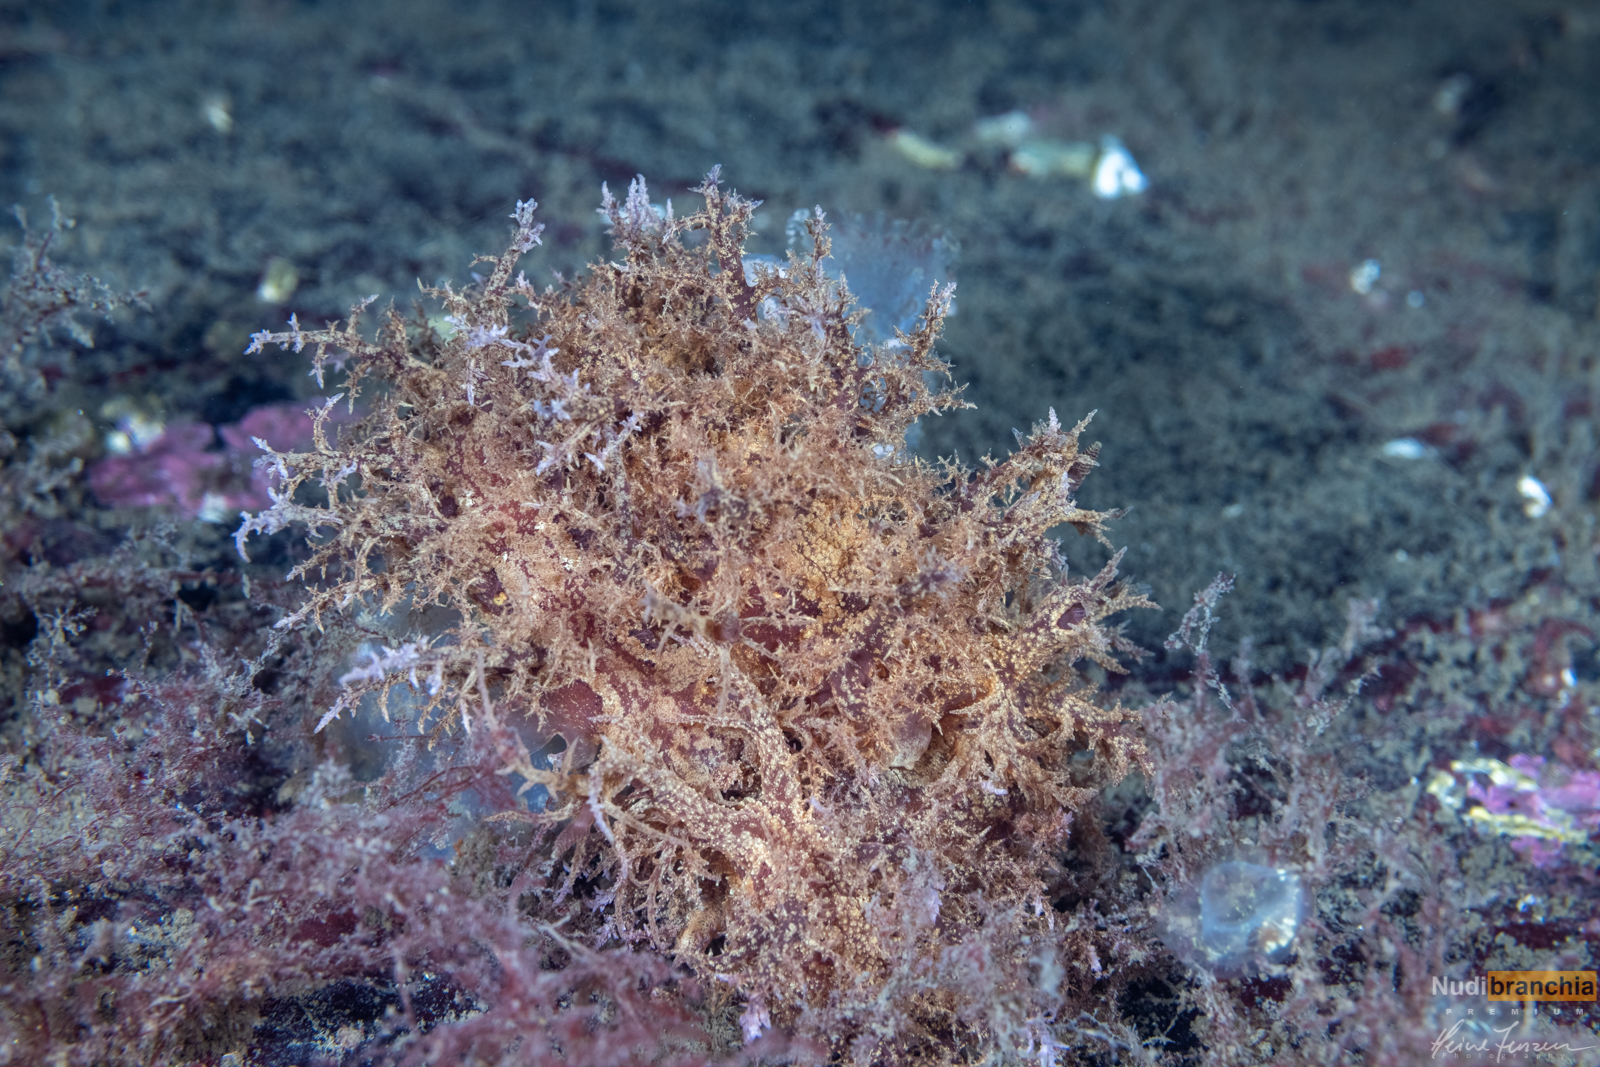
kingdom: Animalia
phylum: Mollusca
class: Gastropoda
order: Nudibranchia
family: Dendronotidae
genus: Dendronotus
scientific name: Dendronotus europaeus
